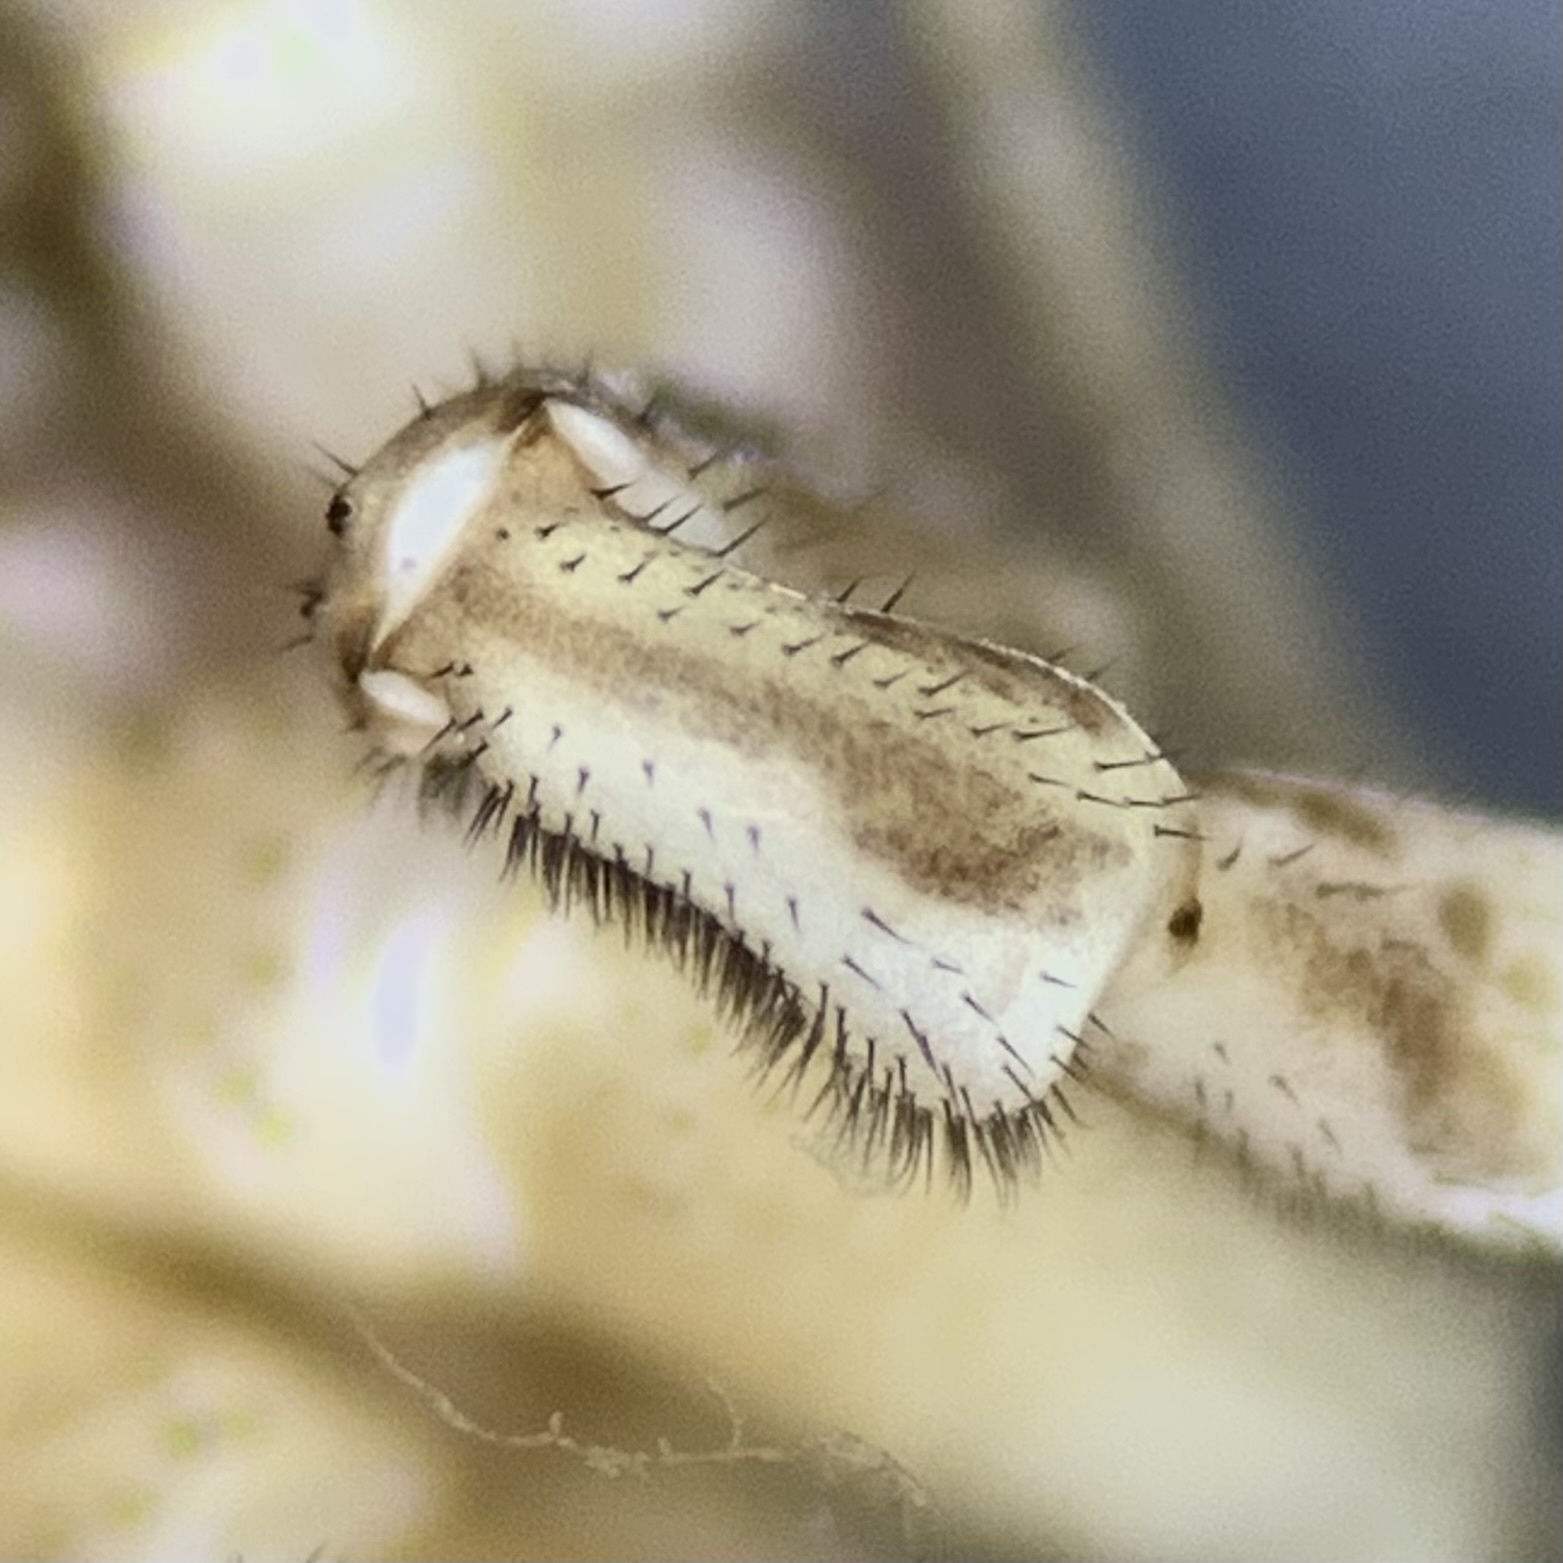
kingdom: Animalia
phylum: Arthropoda
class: Arachnida
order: Opiliones
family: Phalangiidae
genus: Dasylobus
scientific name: Dasylobus graniferus
